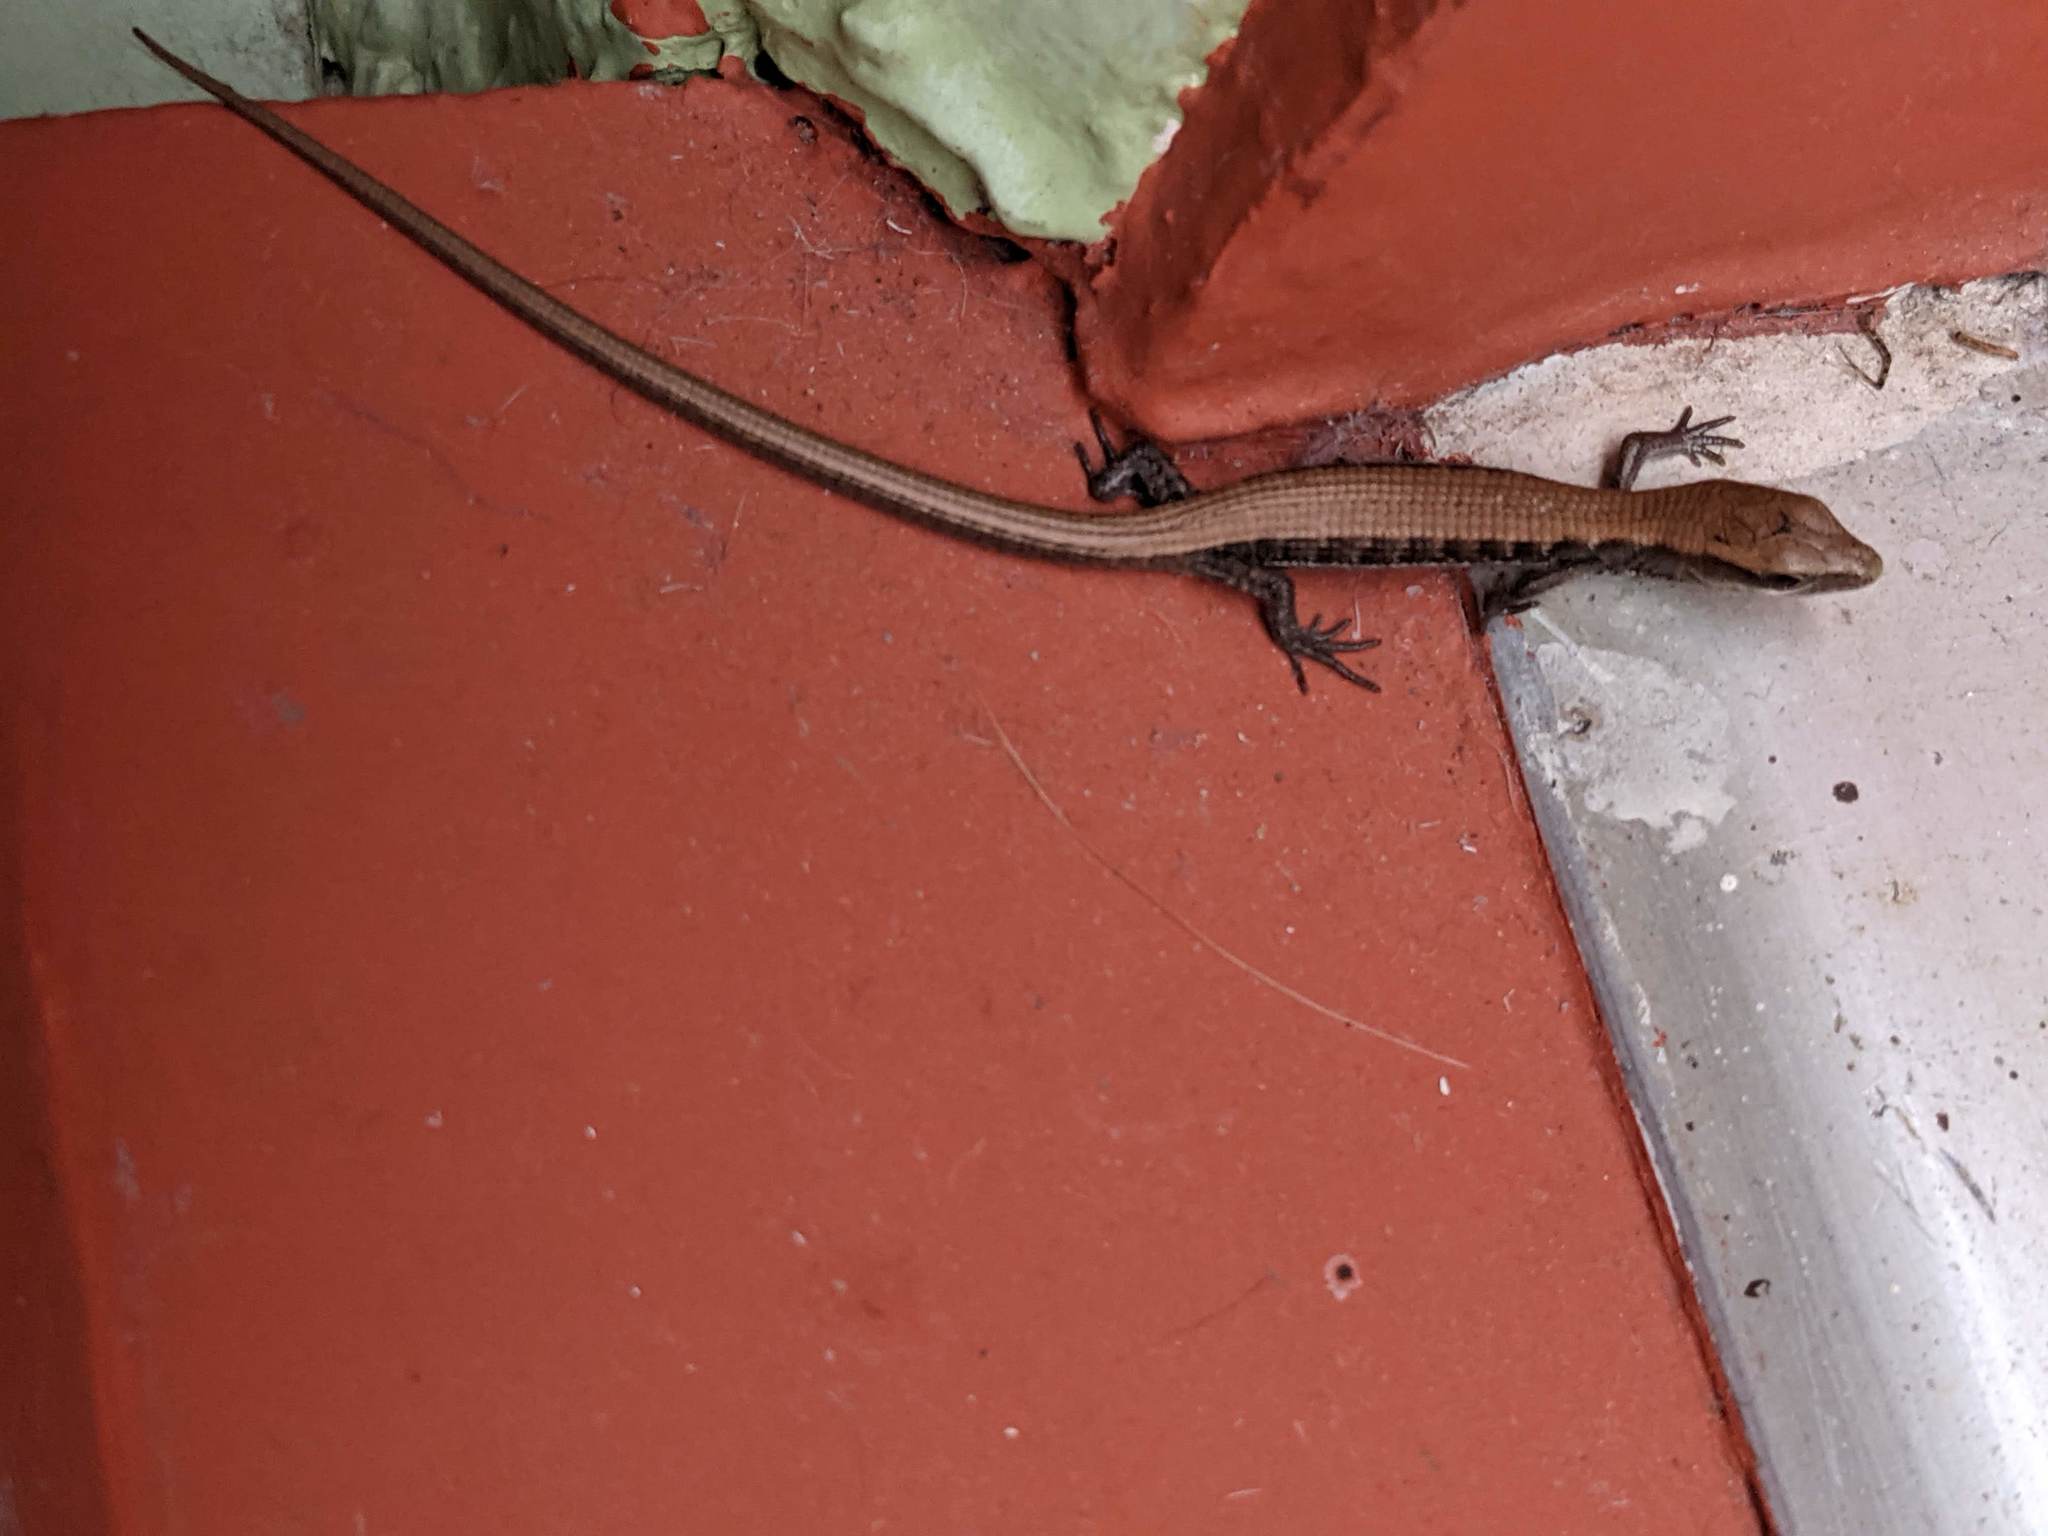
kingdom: Animalia
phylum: Chordata
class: Squamata
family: Anguidae
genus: Elgaria
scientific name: Elgaria multicarinata
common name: Southern alligator lizard
